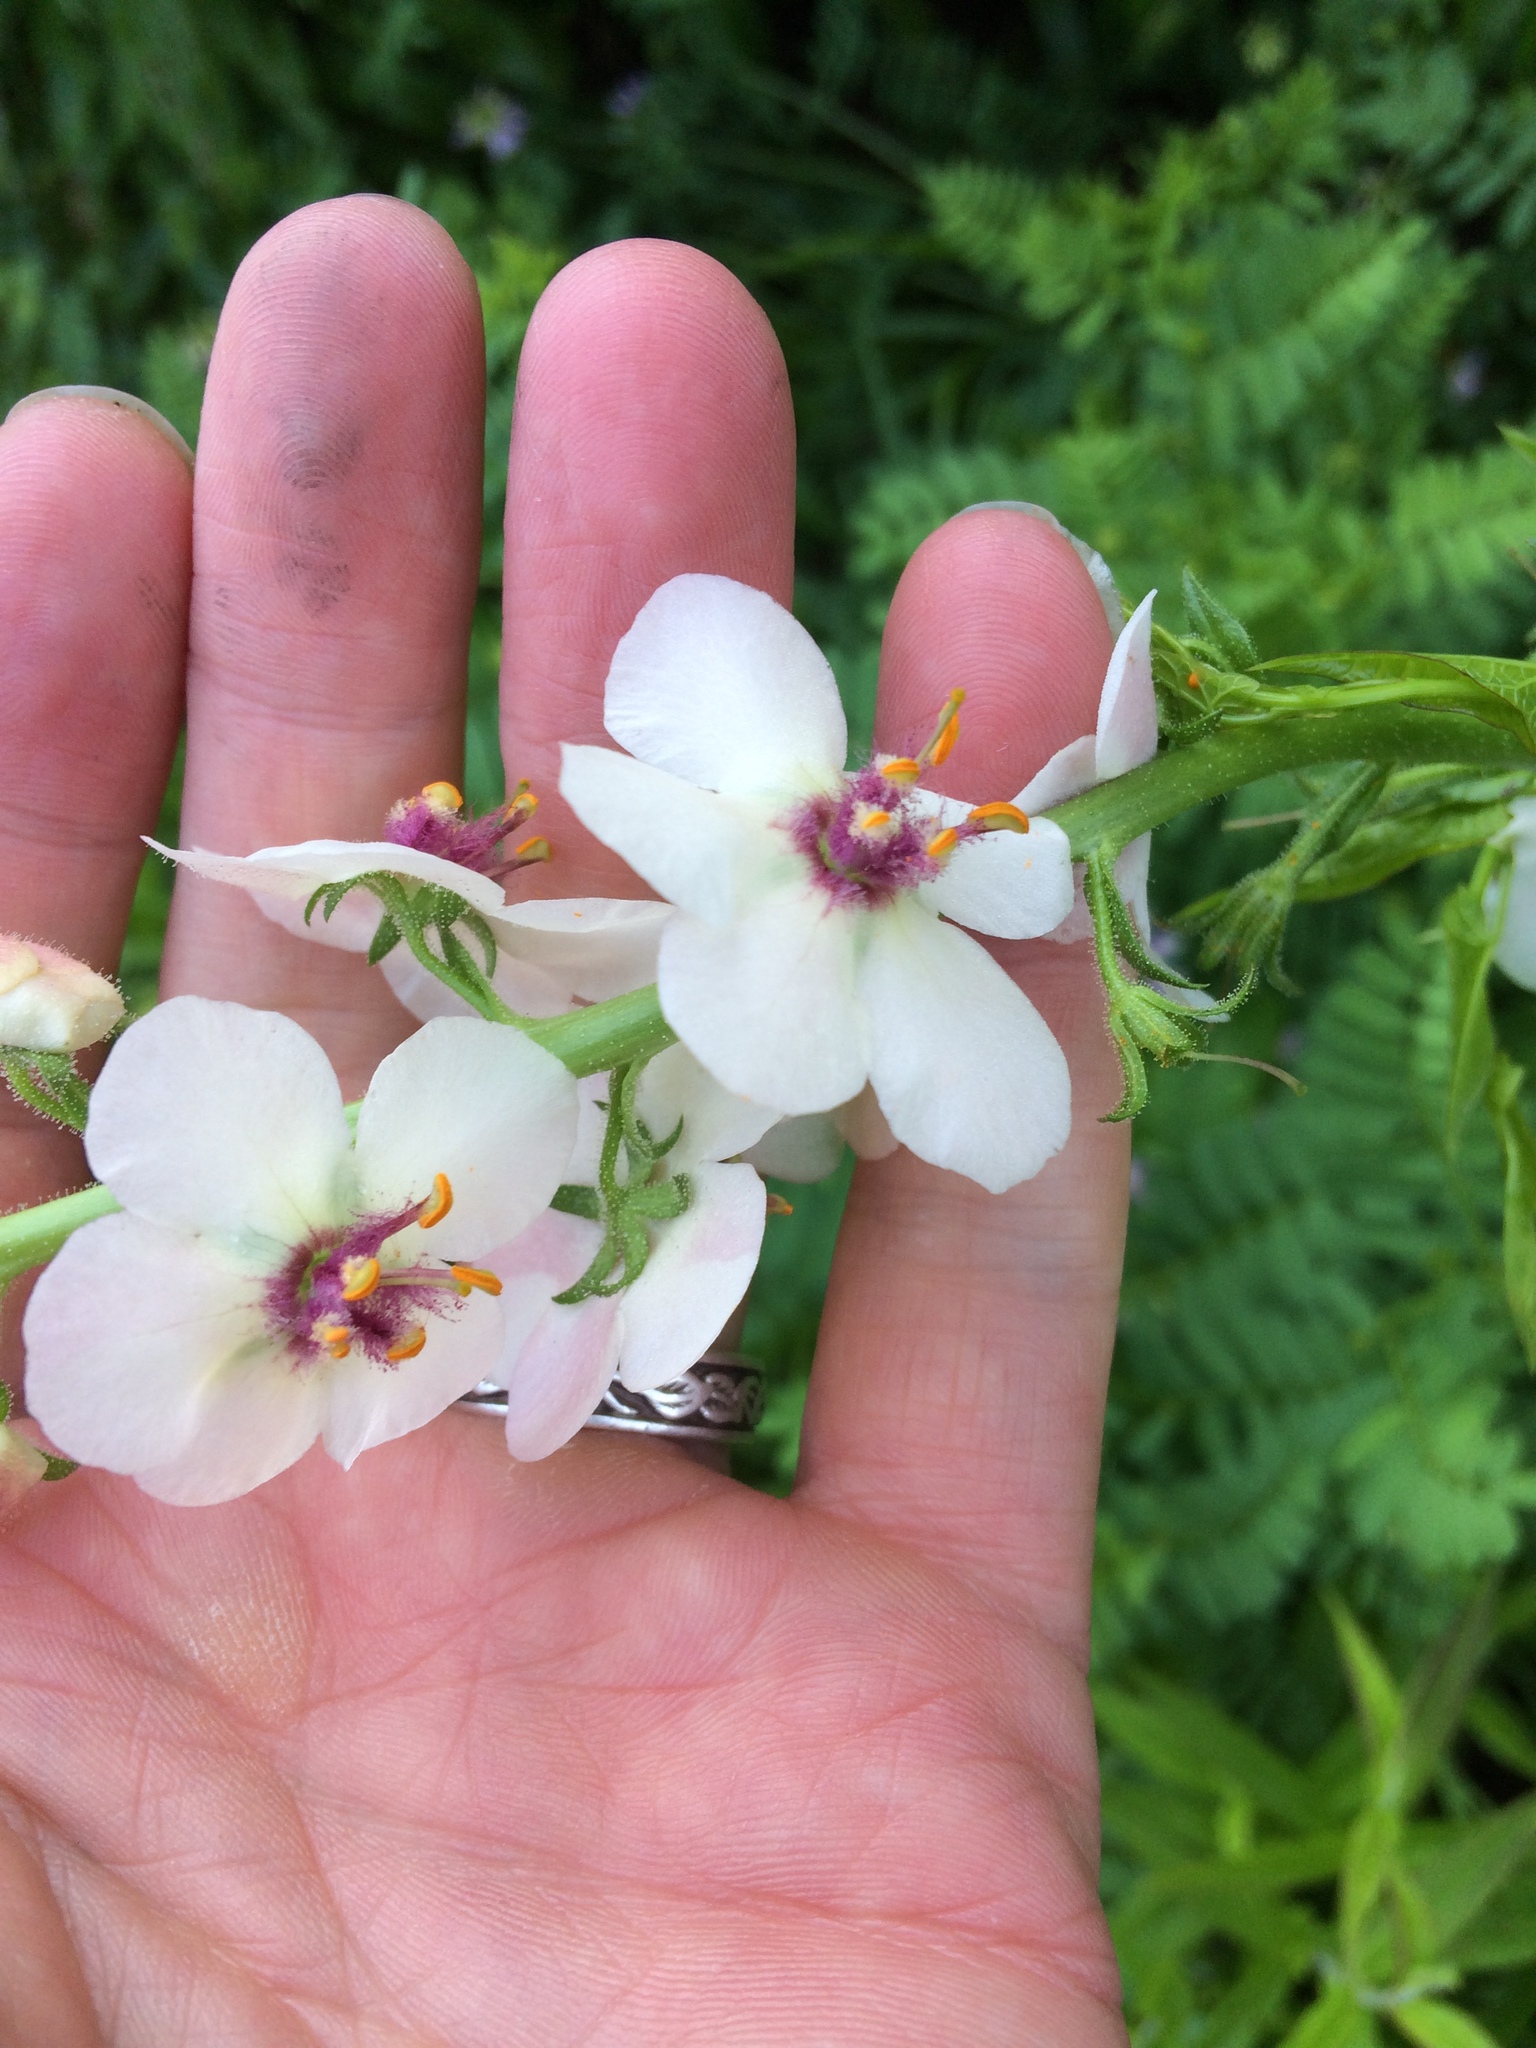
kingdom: Plantae
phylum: Tracheophyta
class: Magnoliopsida
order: Lamiales
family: Scrophulariaceae
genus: Verbascum
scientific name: Verbascum blattaria
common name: Moth mullein
